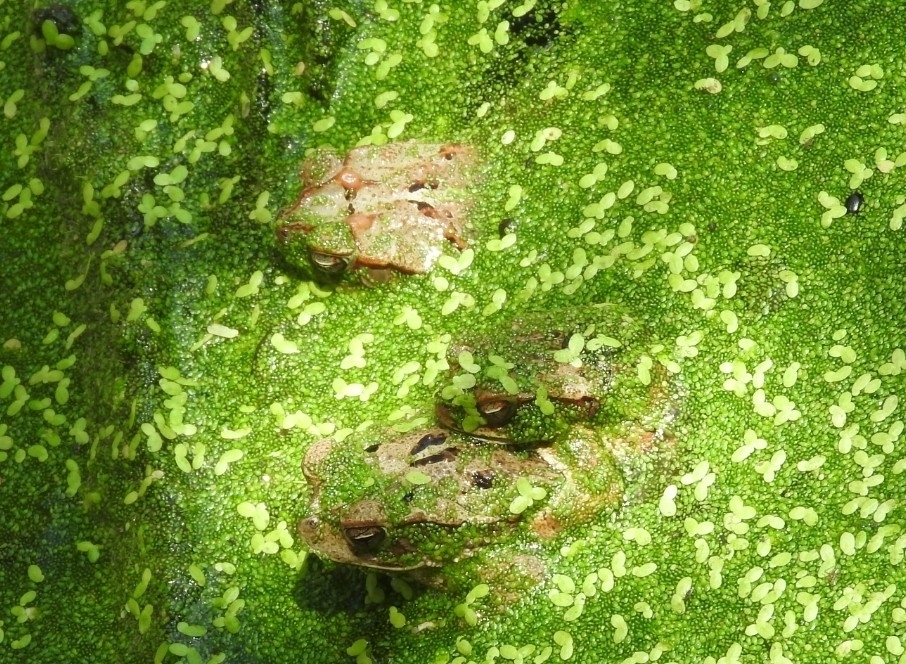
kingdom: Animalia
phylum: Chordata
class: Amphibia
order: Anura
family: Bufonidae
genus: Incilius
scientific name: Incilius valliceps
